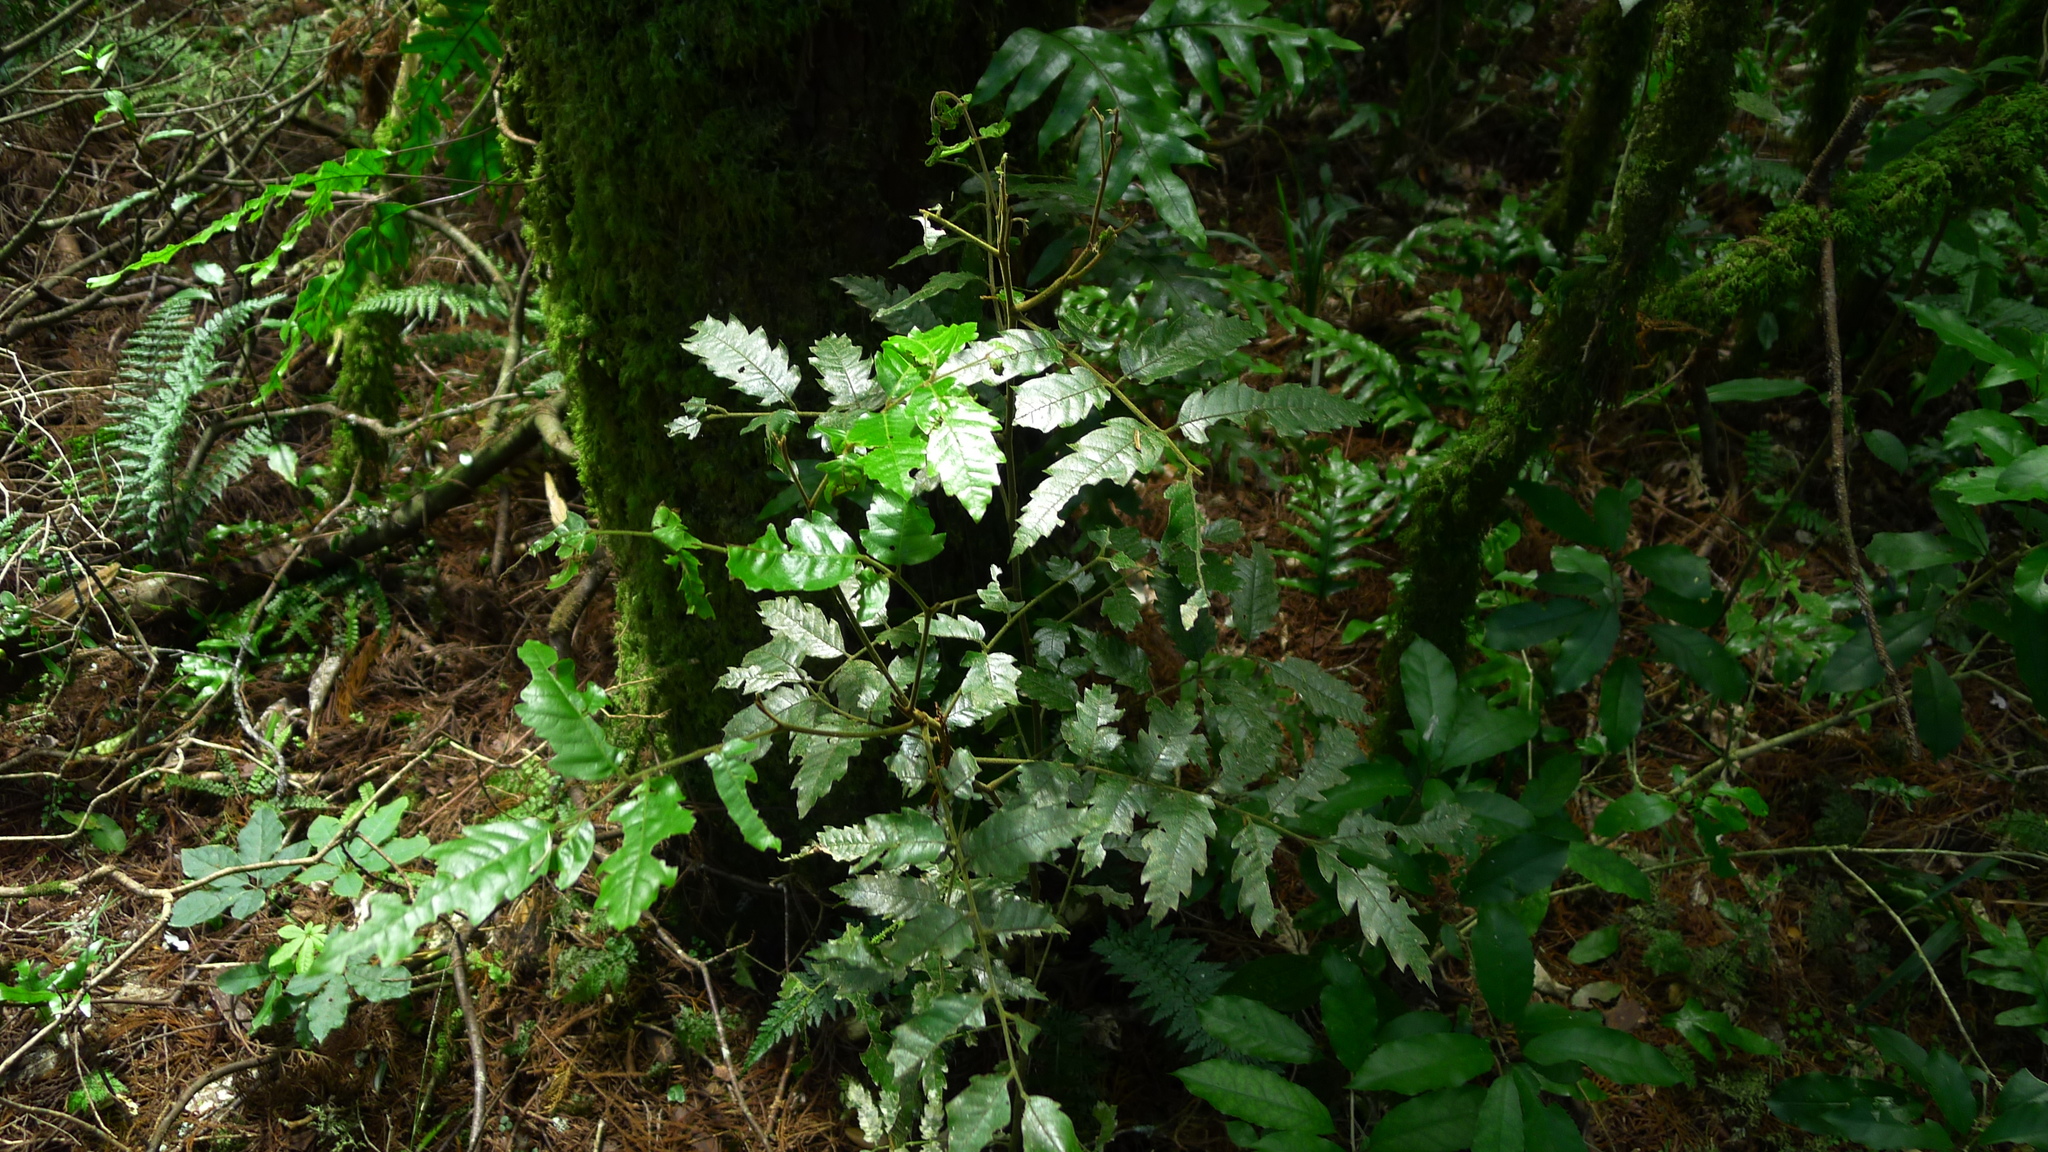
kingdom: Plantae
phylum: Tracheophyta
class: Magnoliopsida
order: Sapindales
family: Sapindaceae
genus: Alectryon
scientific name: Alectryon excelsus
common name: Three kings titoki
